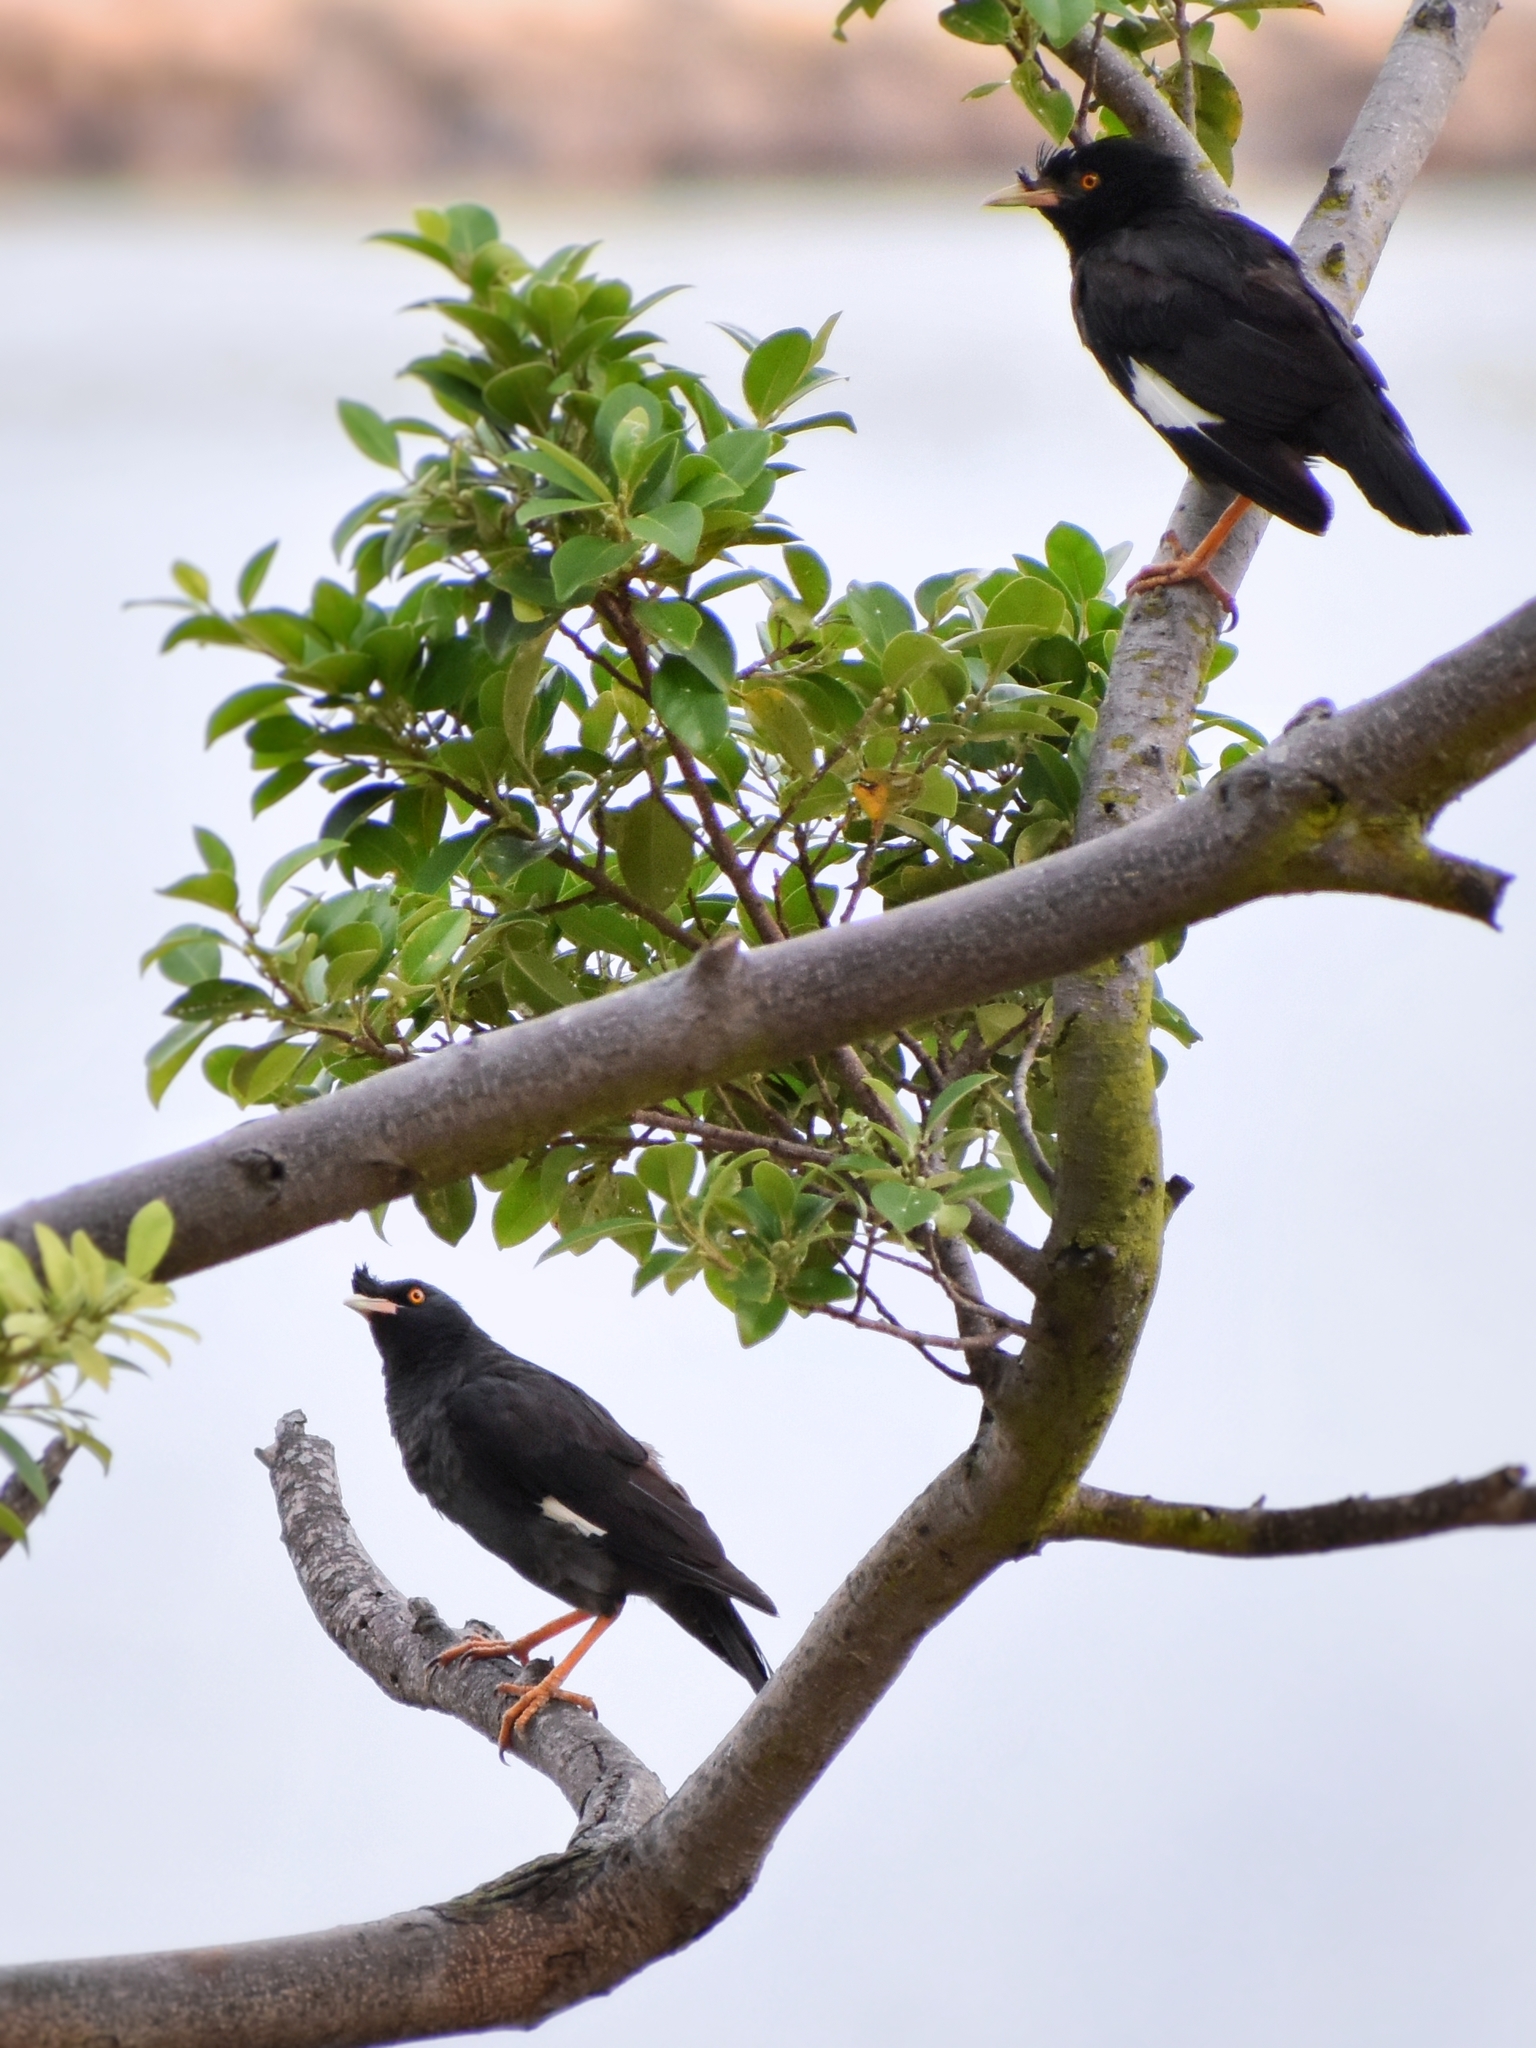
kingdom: Animalia
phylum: Chordata
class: Aves
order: Passeriformes
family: Sturnidae
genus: Acridotheres
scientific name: Acridotheres cristatellus
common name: Crested myna
